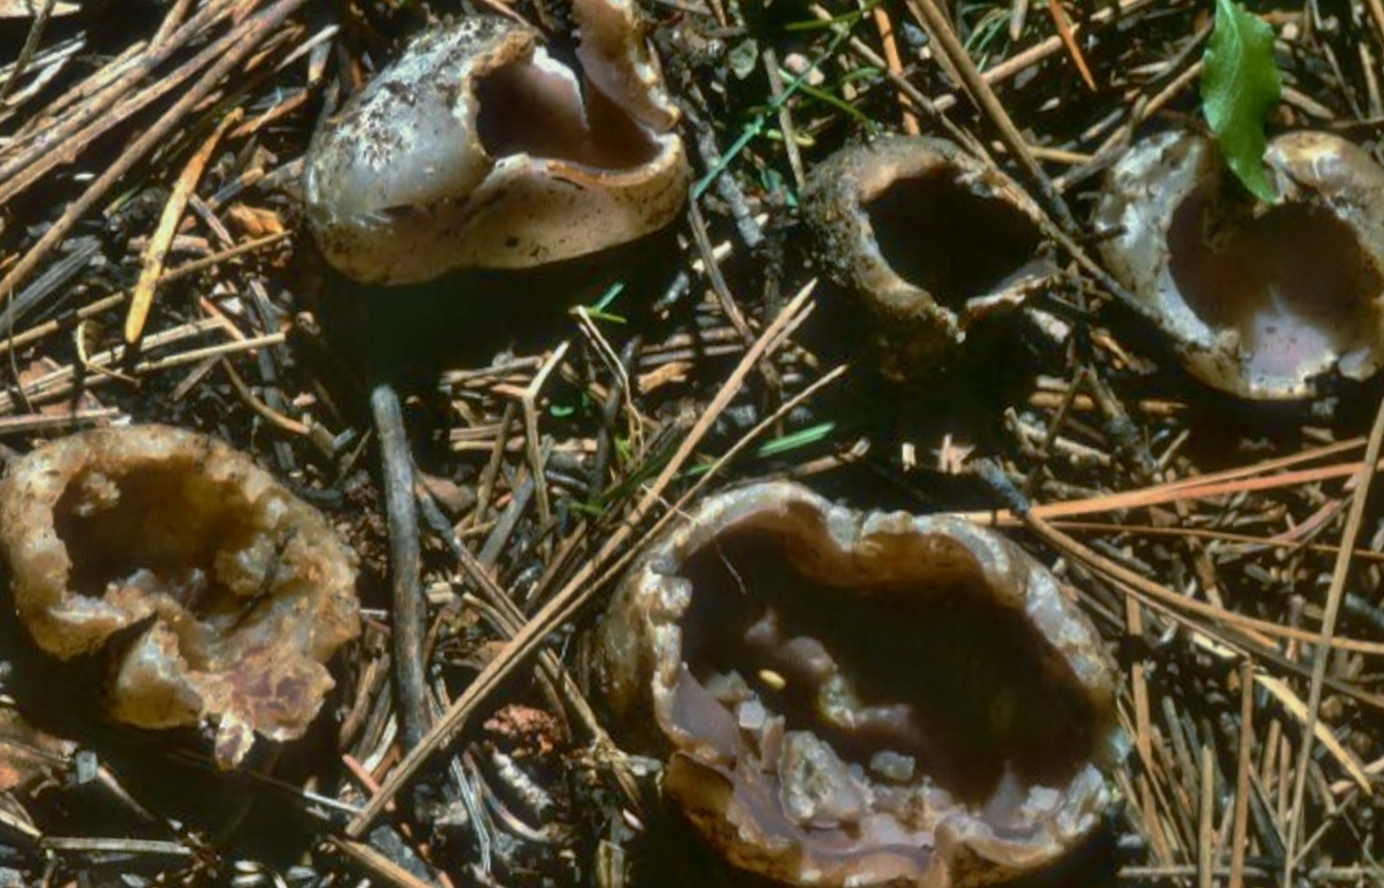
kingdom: Fungi
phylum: Ascomycota
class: Pezizomycetes
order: Pezizales
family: Pezizaceae
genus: Sarcosphaera
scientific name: Sarcosphaera coronaria
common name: Violet crowncup
